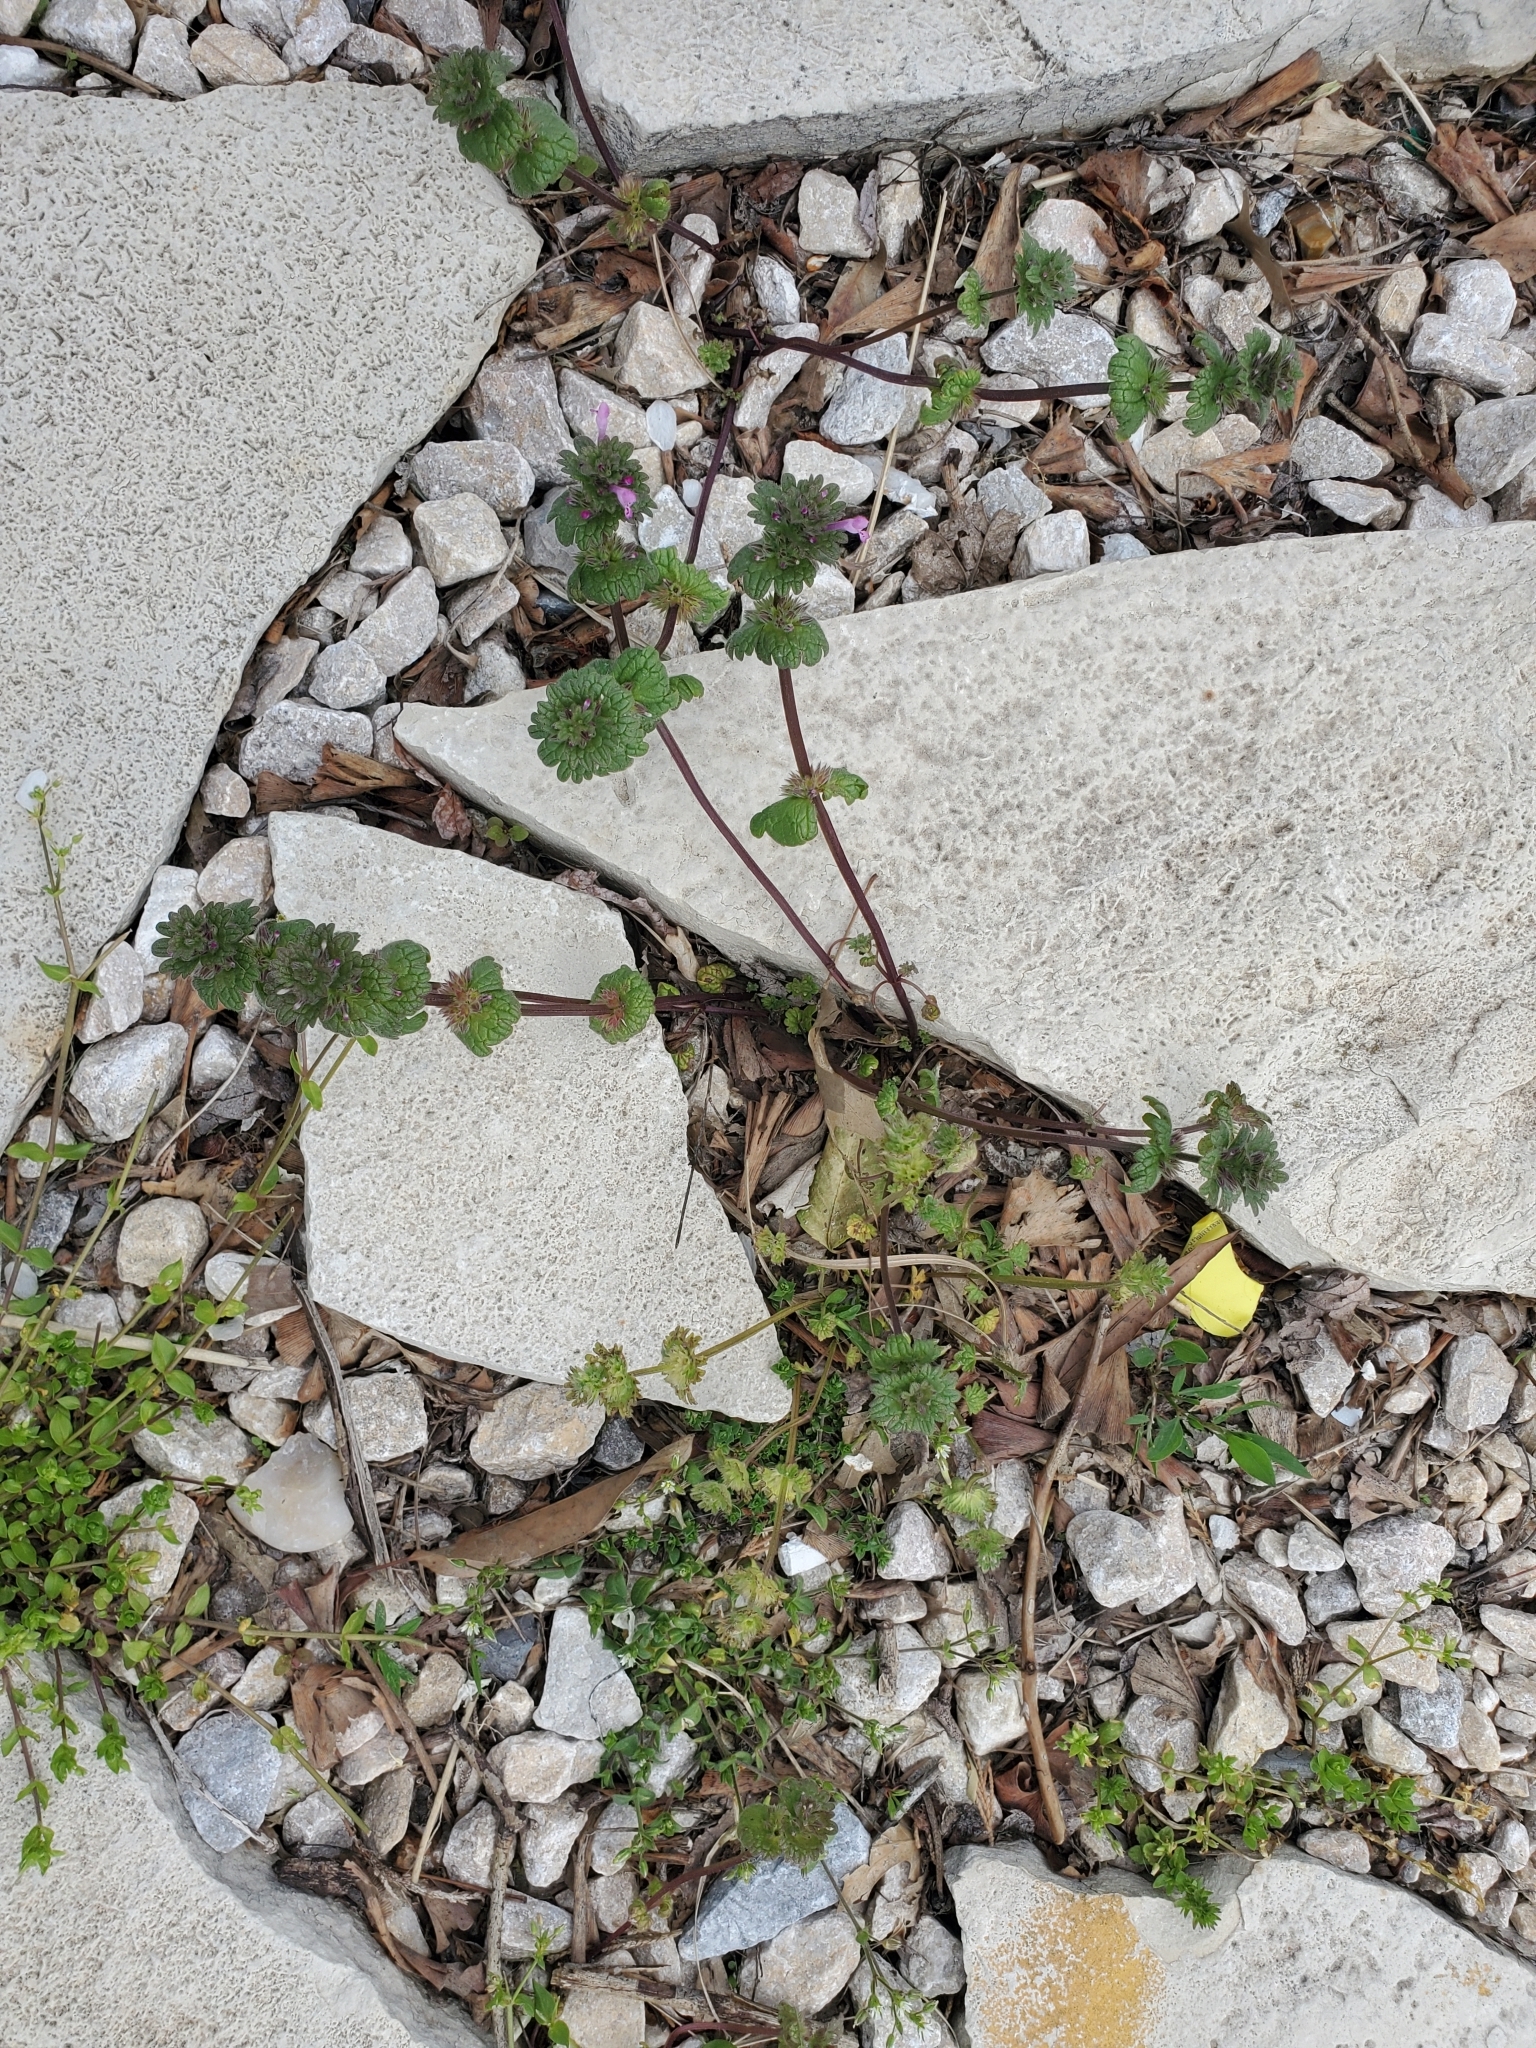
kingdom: Plantae
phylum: Tracheophyta
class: Magnoliopsida
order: Lamiales
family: Lamiaceae
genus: Lamium
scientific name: Lamium amplexicaule
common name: Henbit dead-nettle
